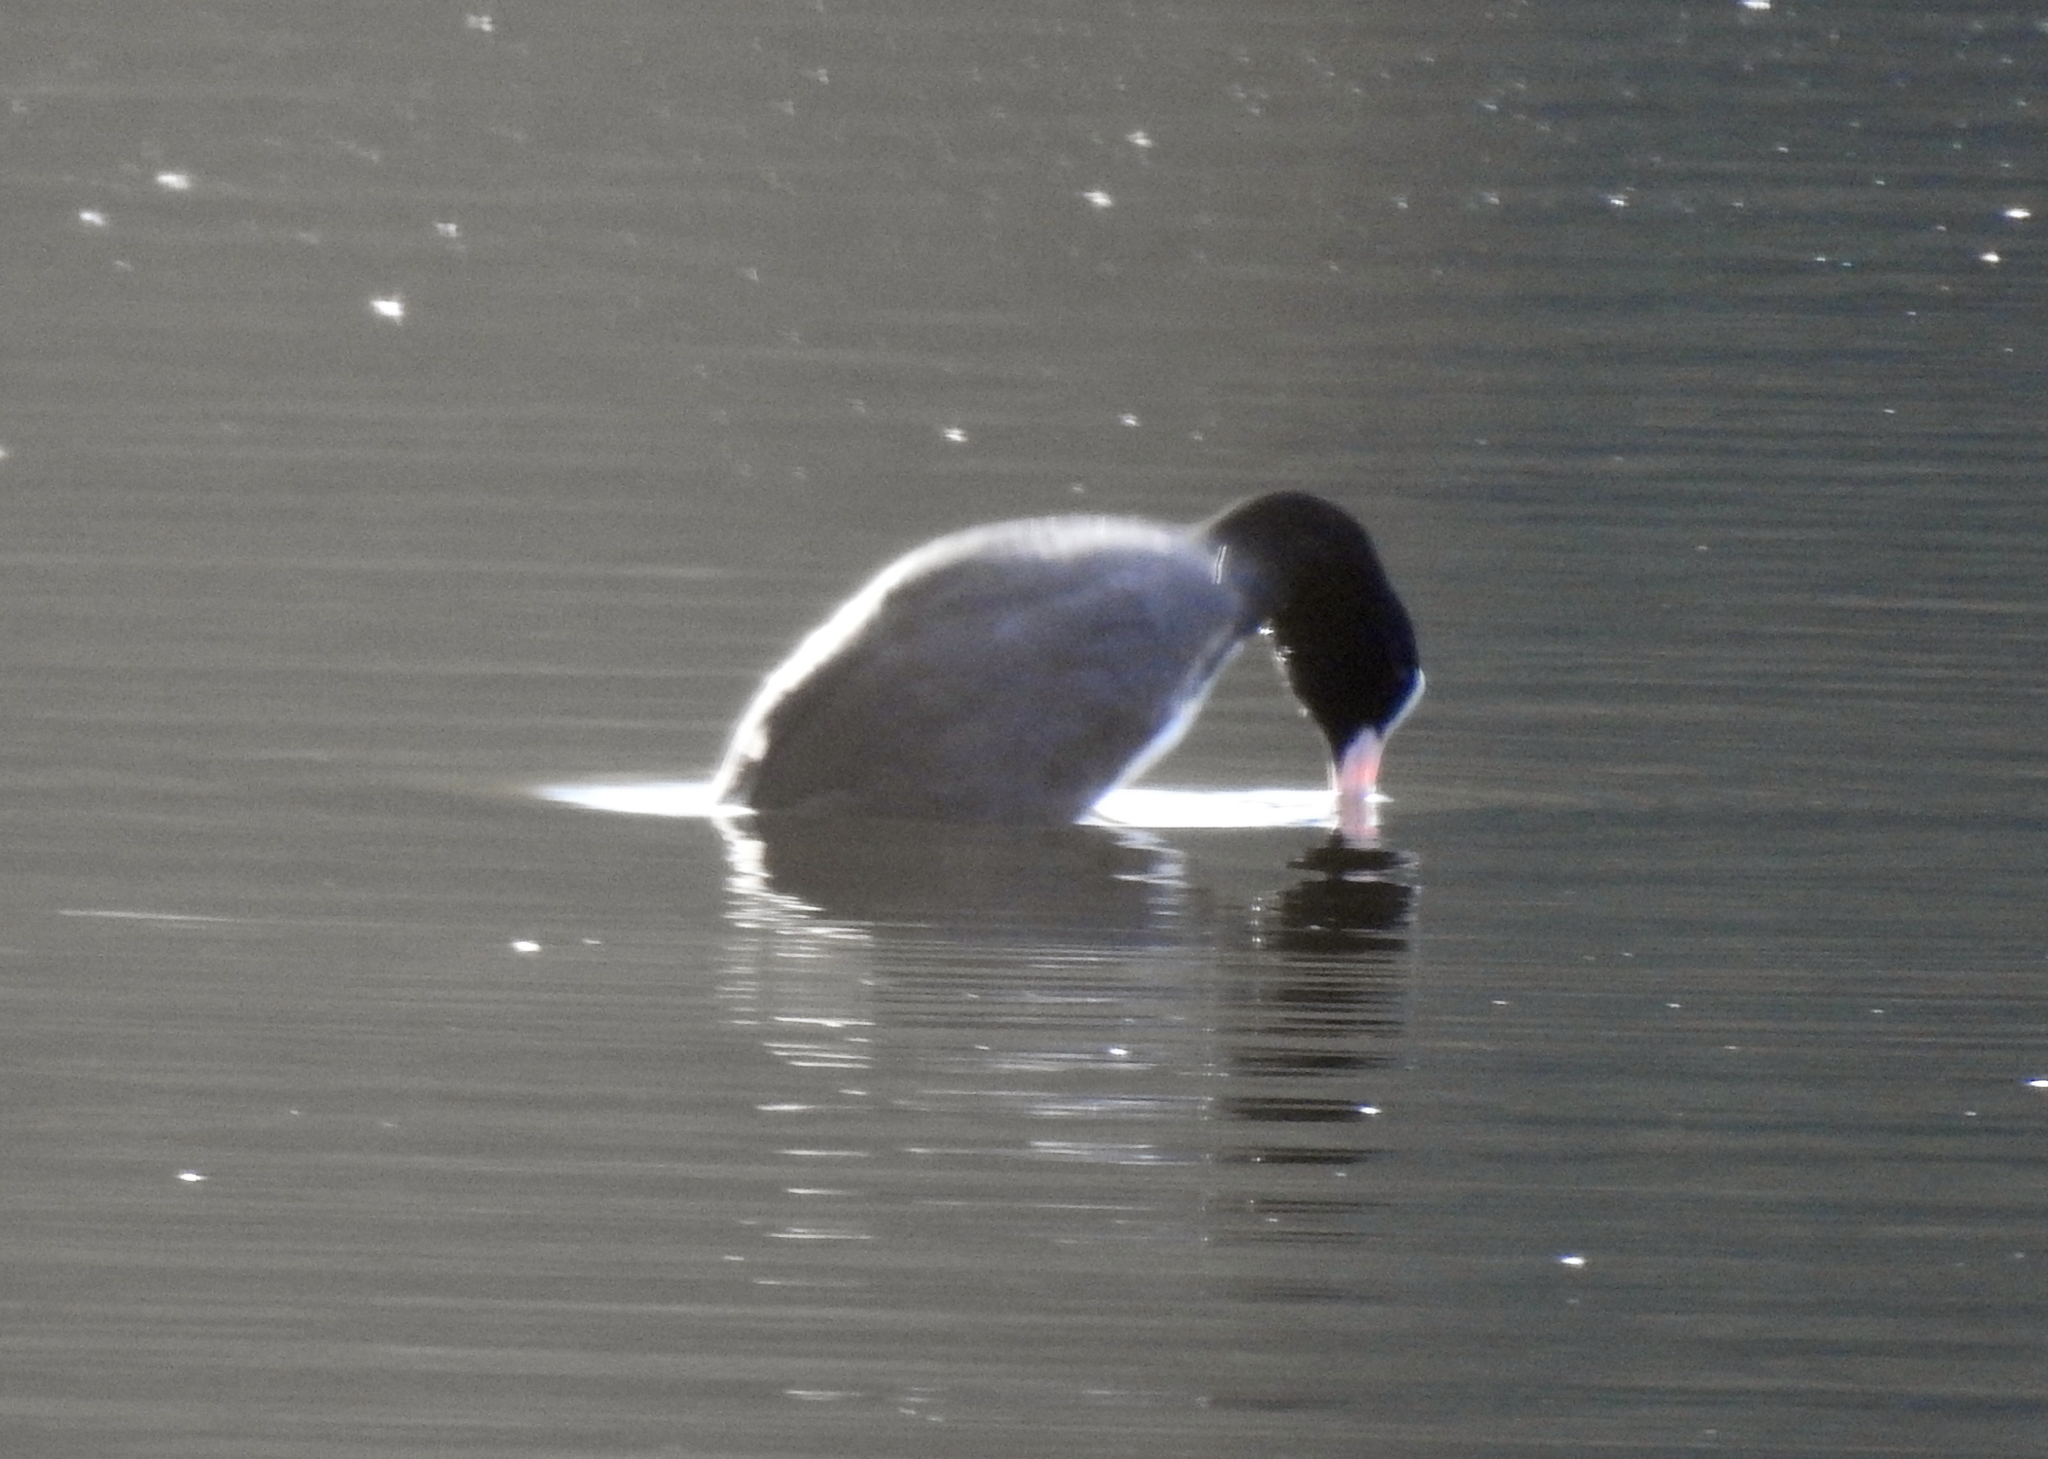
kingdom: Animalia
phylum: Chordata
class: Aves
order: Gruiformes
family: Rallidae
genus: Fulica
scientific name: Fulica atra
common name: Eurasian coot
